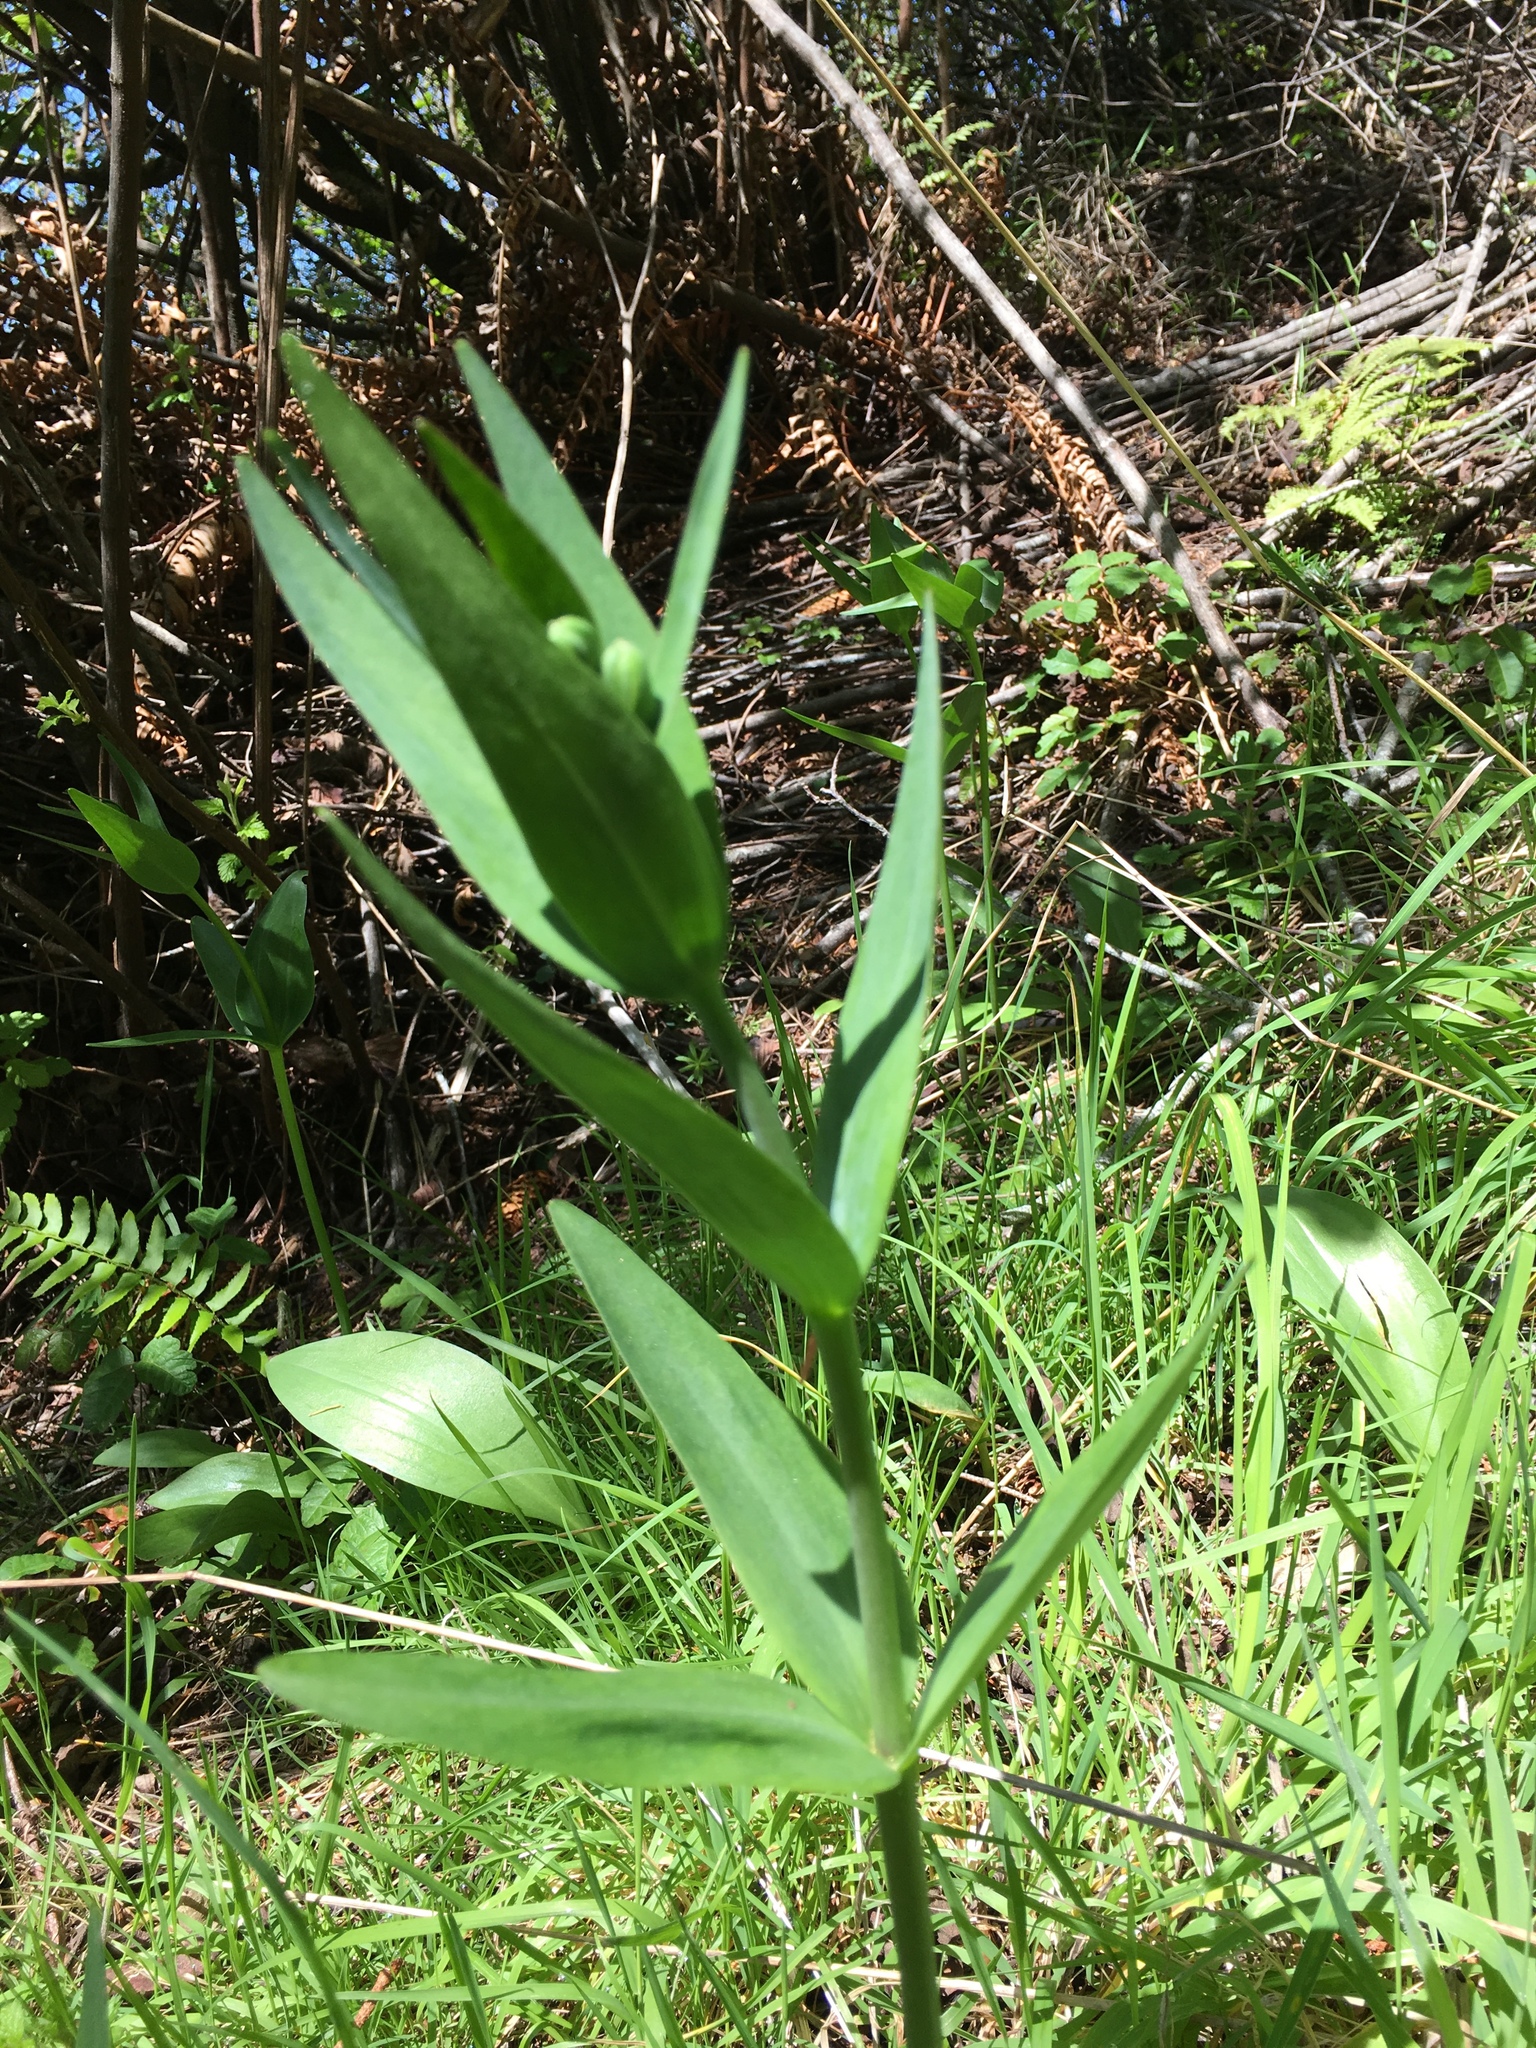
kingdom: Plantae
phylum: Tracheophyta
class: Liliopsida
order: Liliales
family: Liliaceae
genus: Fritillaria
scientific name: Fritillaria affinis
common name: Ojai fritillary
